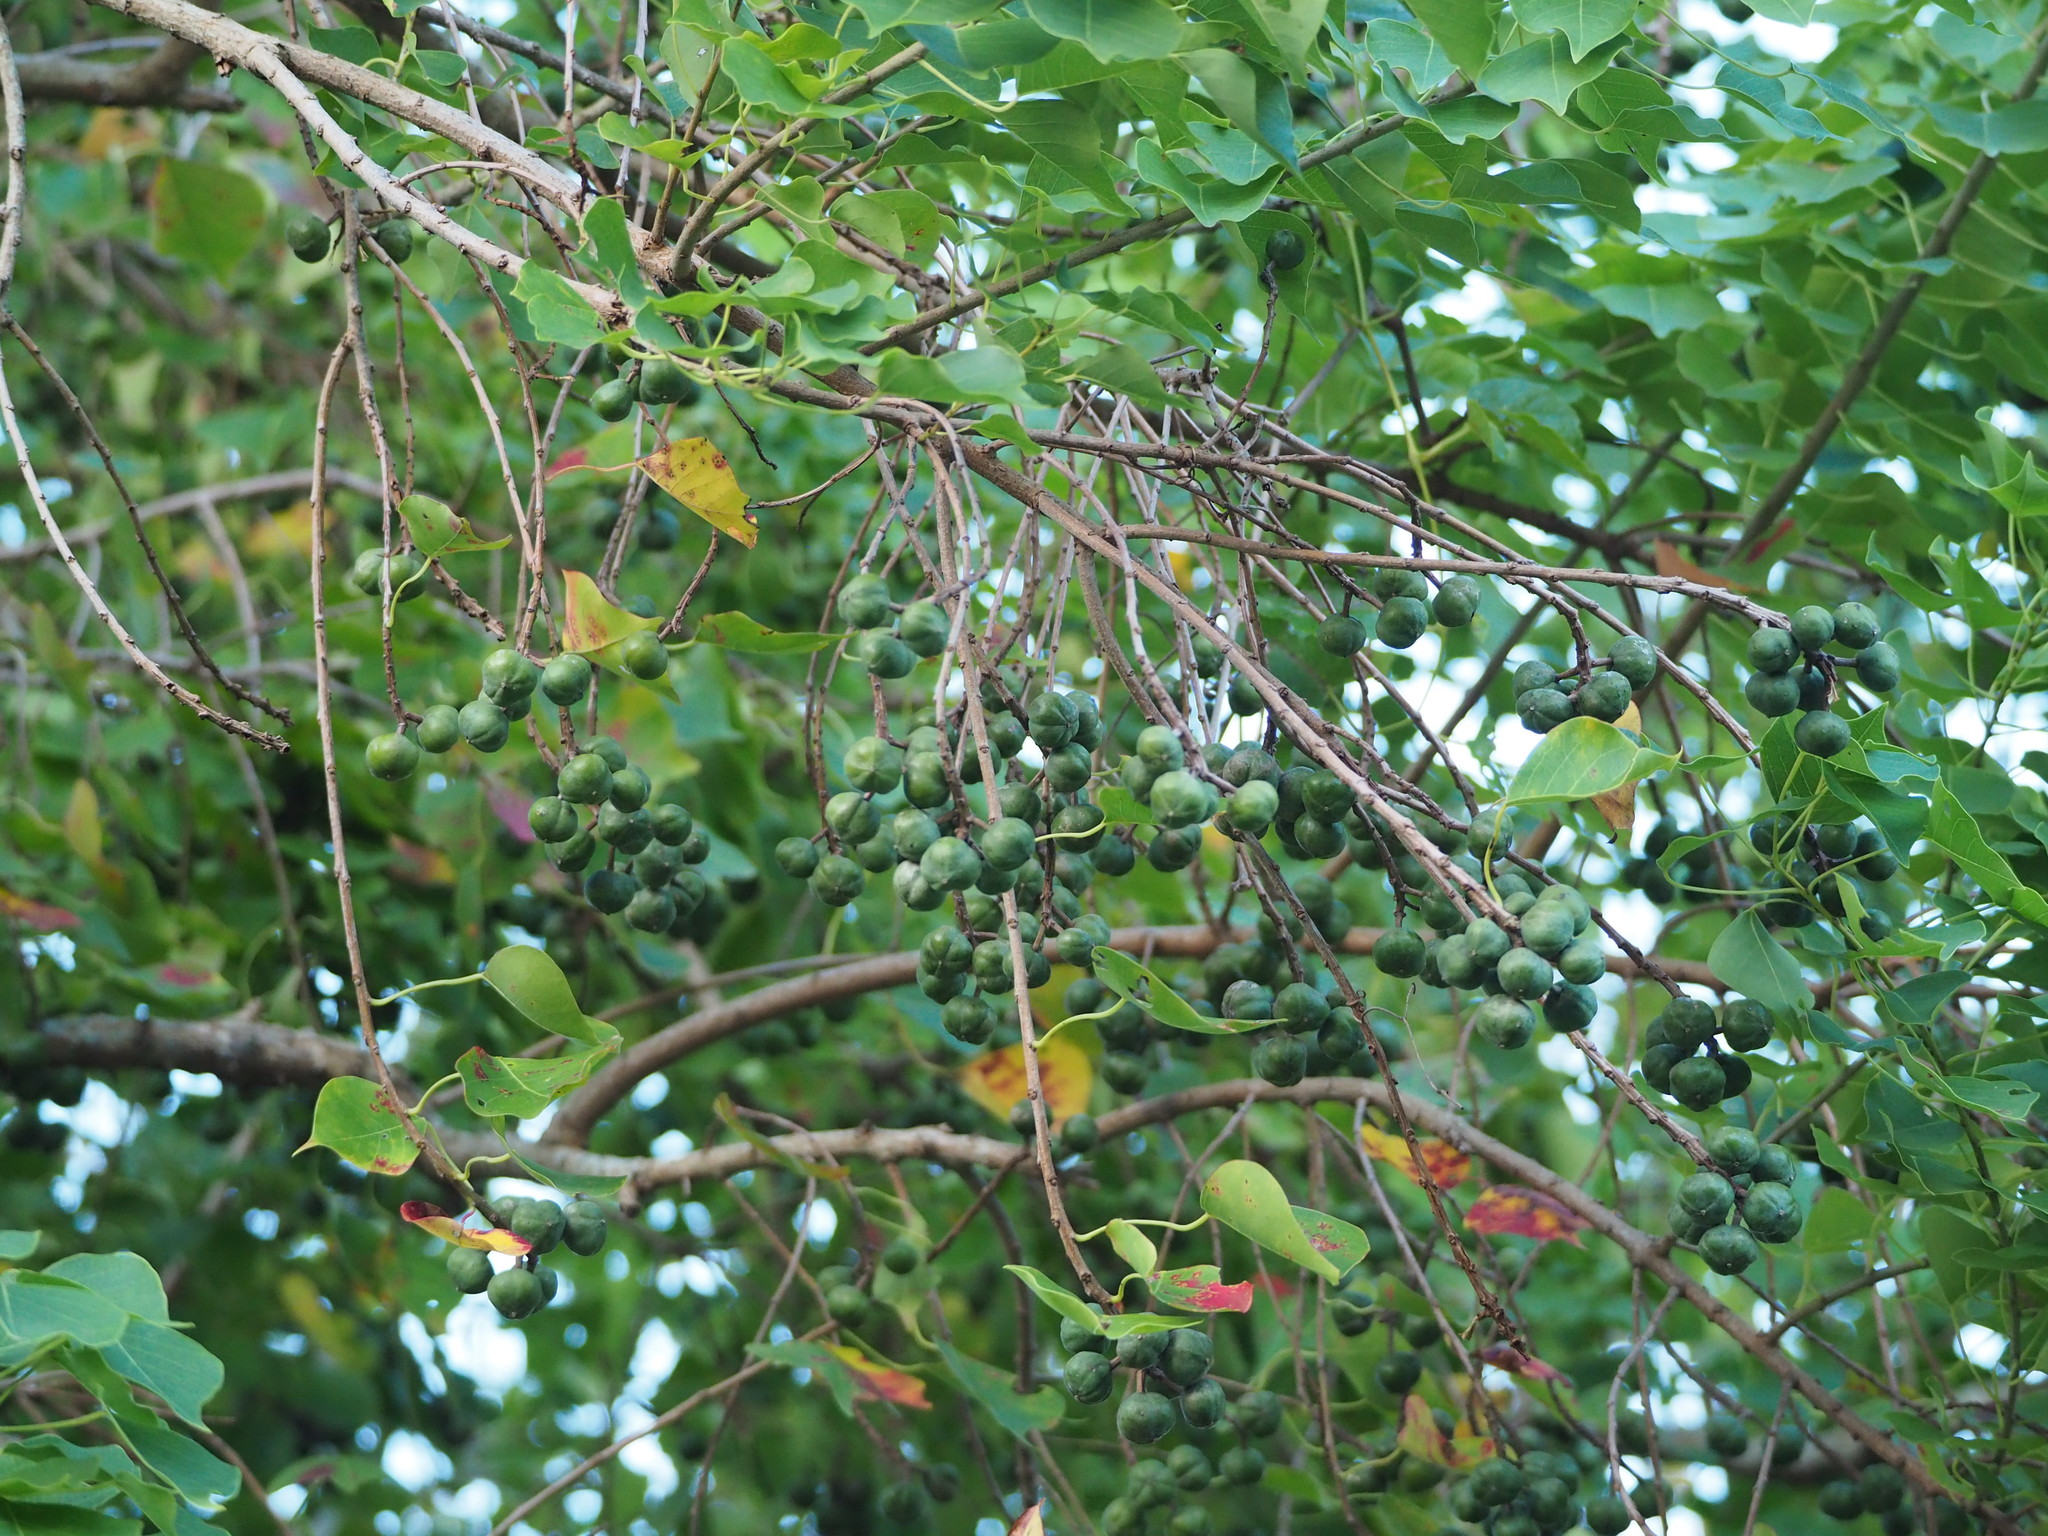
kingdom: Plantae
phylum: Tracheophyta
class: Magnoliopsida
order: Malpighiales
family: Euphorbiaceae
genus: Triadica
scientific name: Triadica sebifera
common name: Chinese tallow
